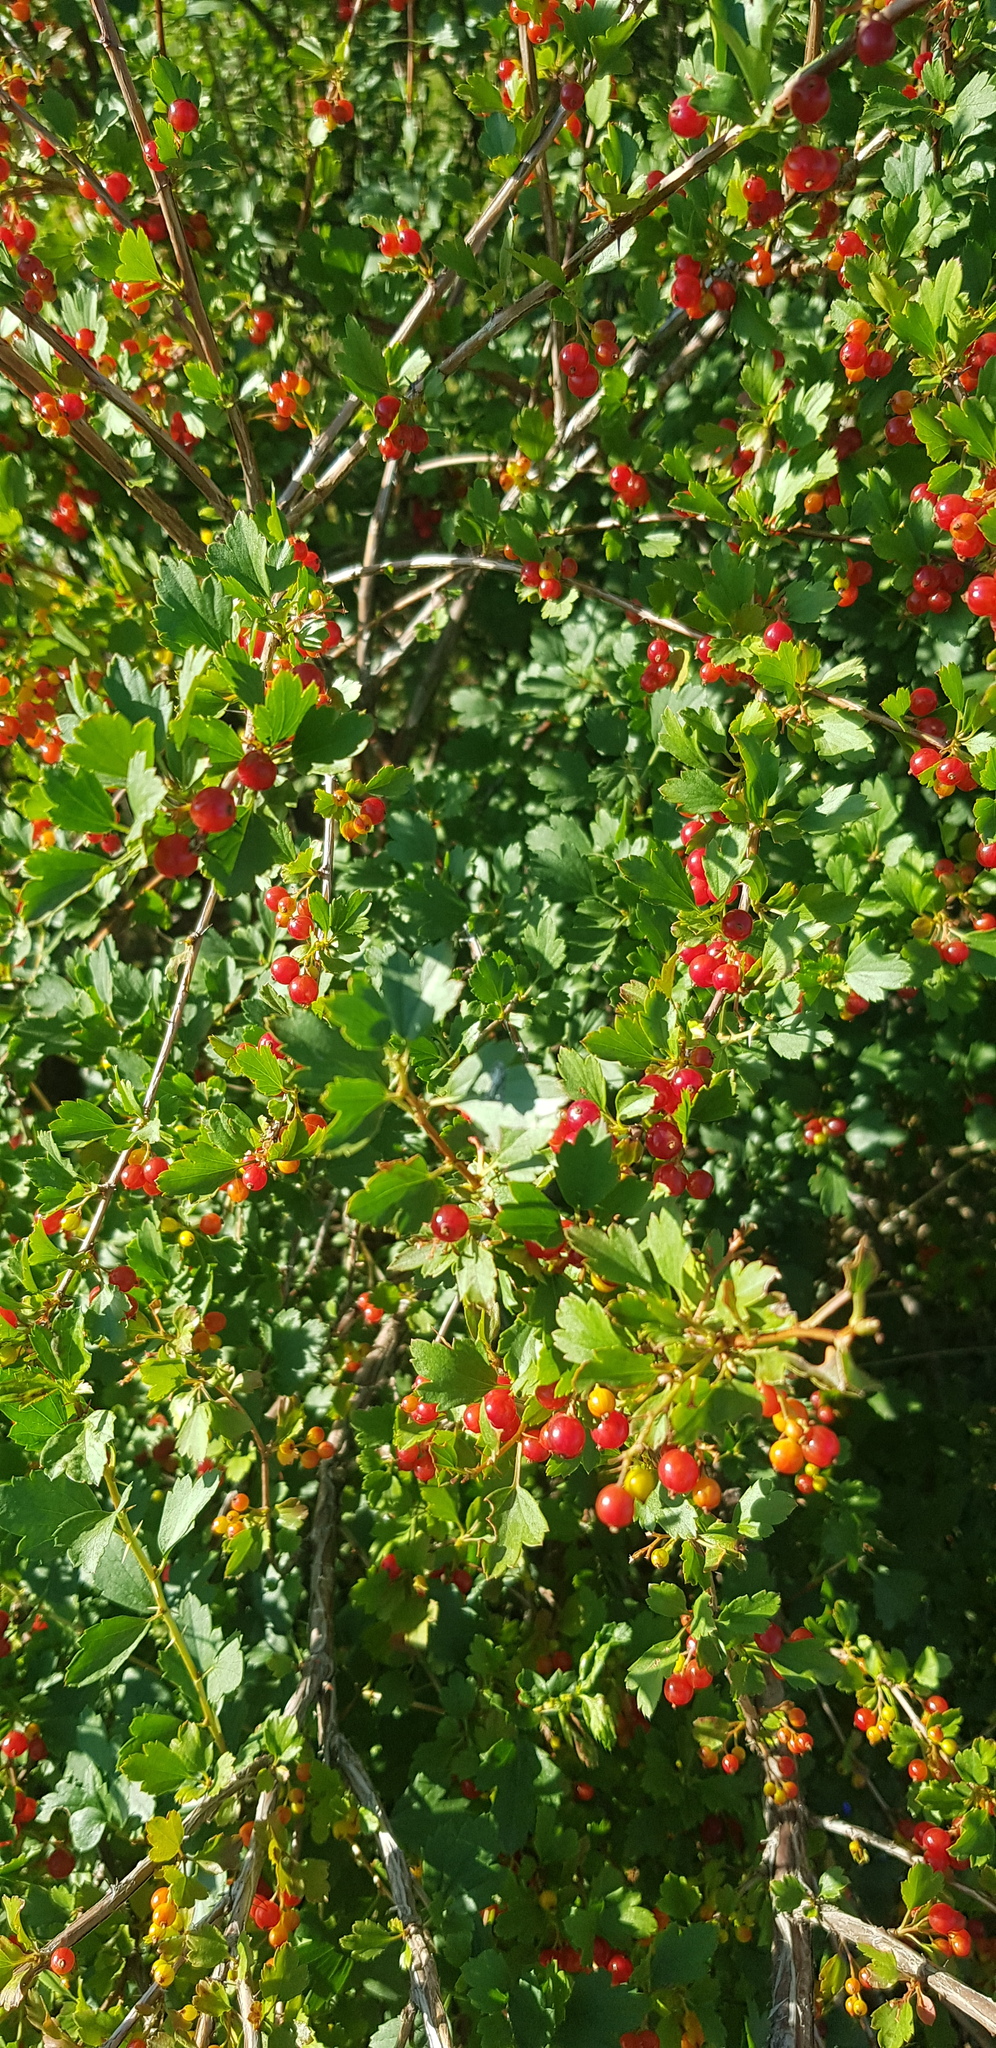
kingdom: Plantae
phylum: Tracheophyta
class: Magnoliopsida
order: Saxifragales
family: Grossulariaceae
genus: Ribes
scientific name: Ribes diacanthum
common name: Siberian currant
